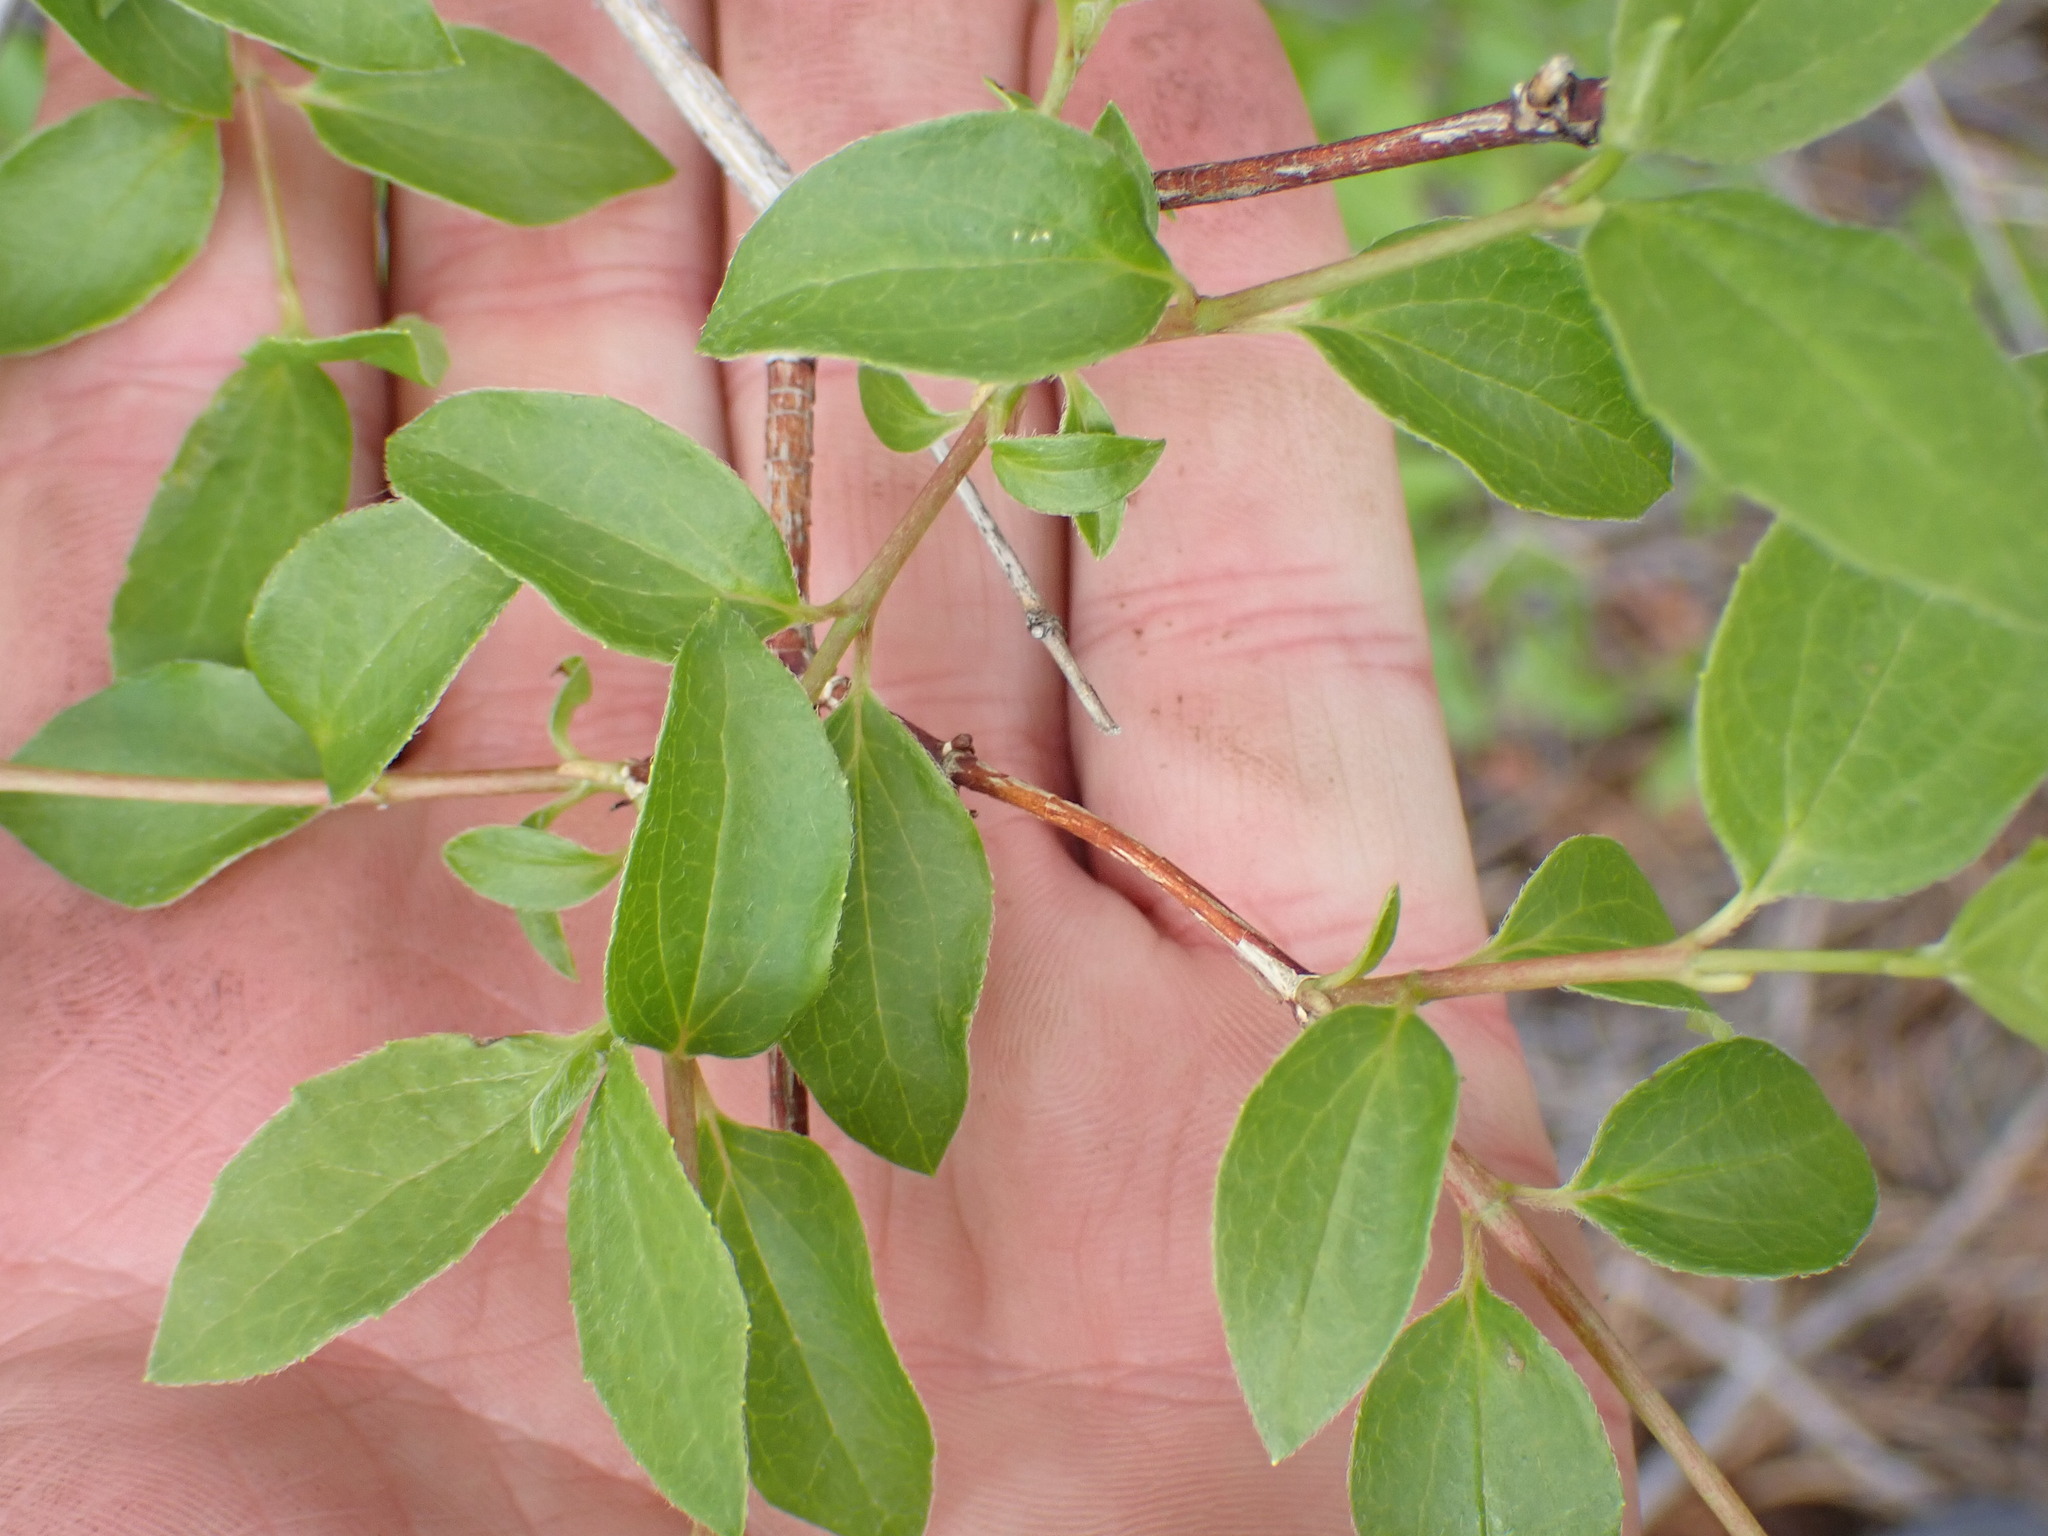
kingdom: Plantae
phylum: Tracheophyta
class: Magnoliopsida
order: Cornales
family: Hydrangeaceae
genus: Philadelphus
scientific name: Philadelphus lewisii
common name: Lewis's mock orange
